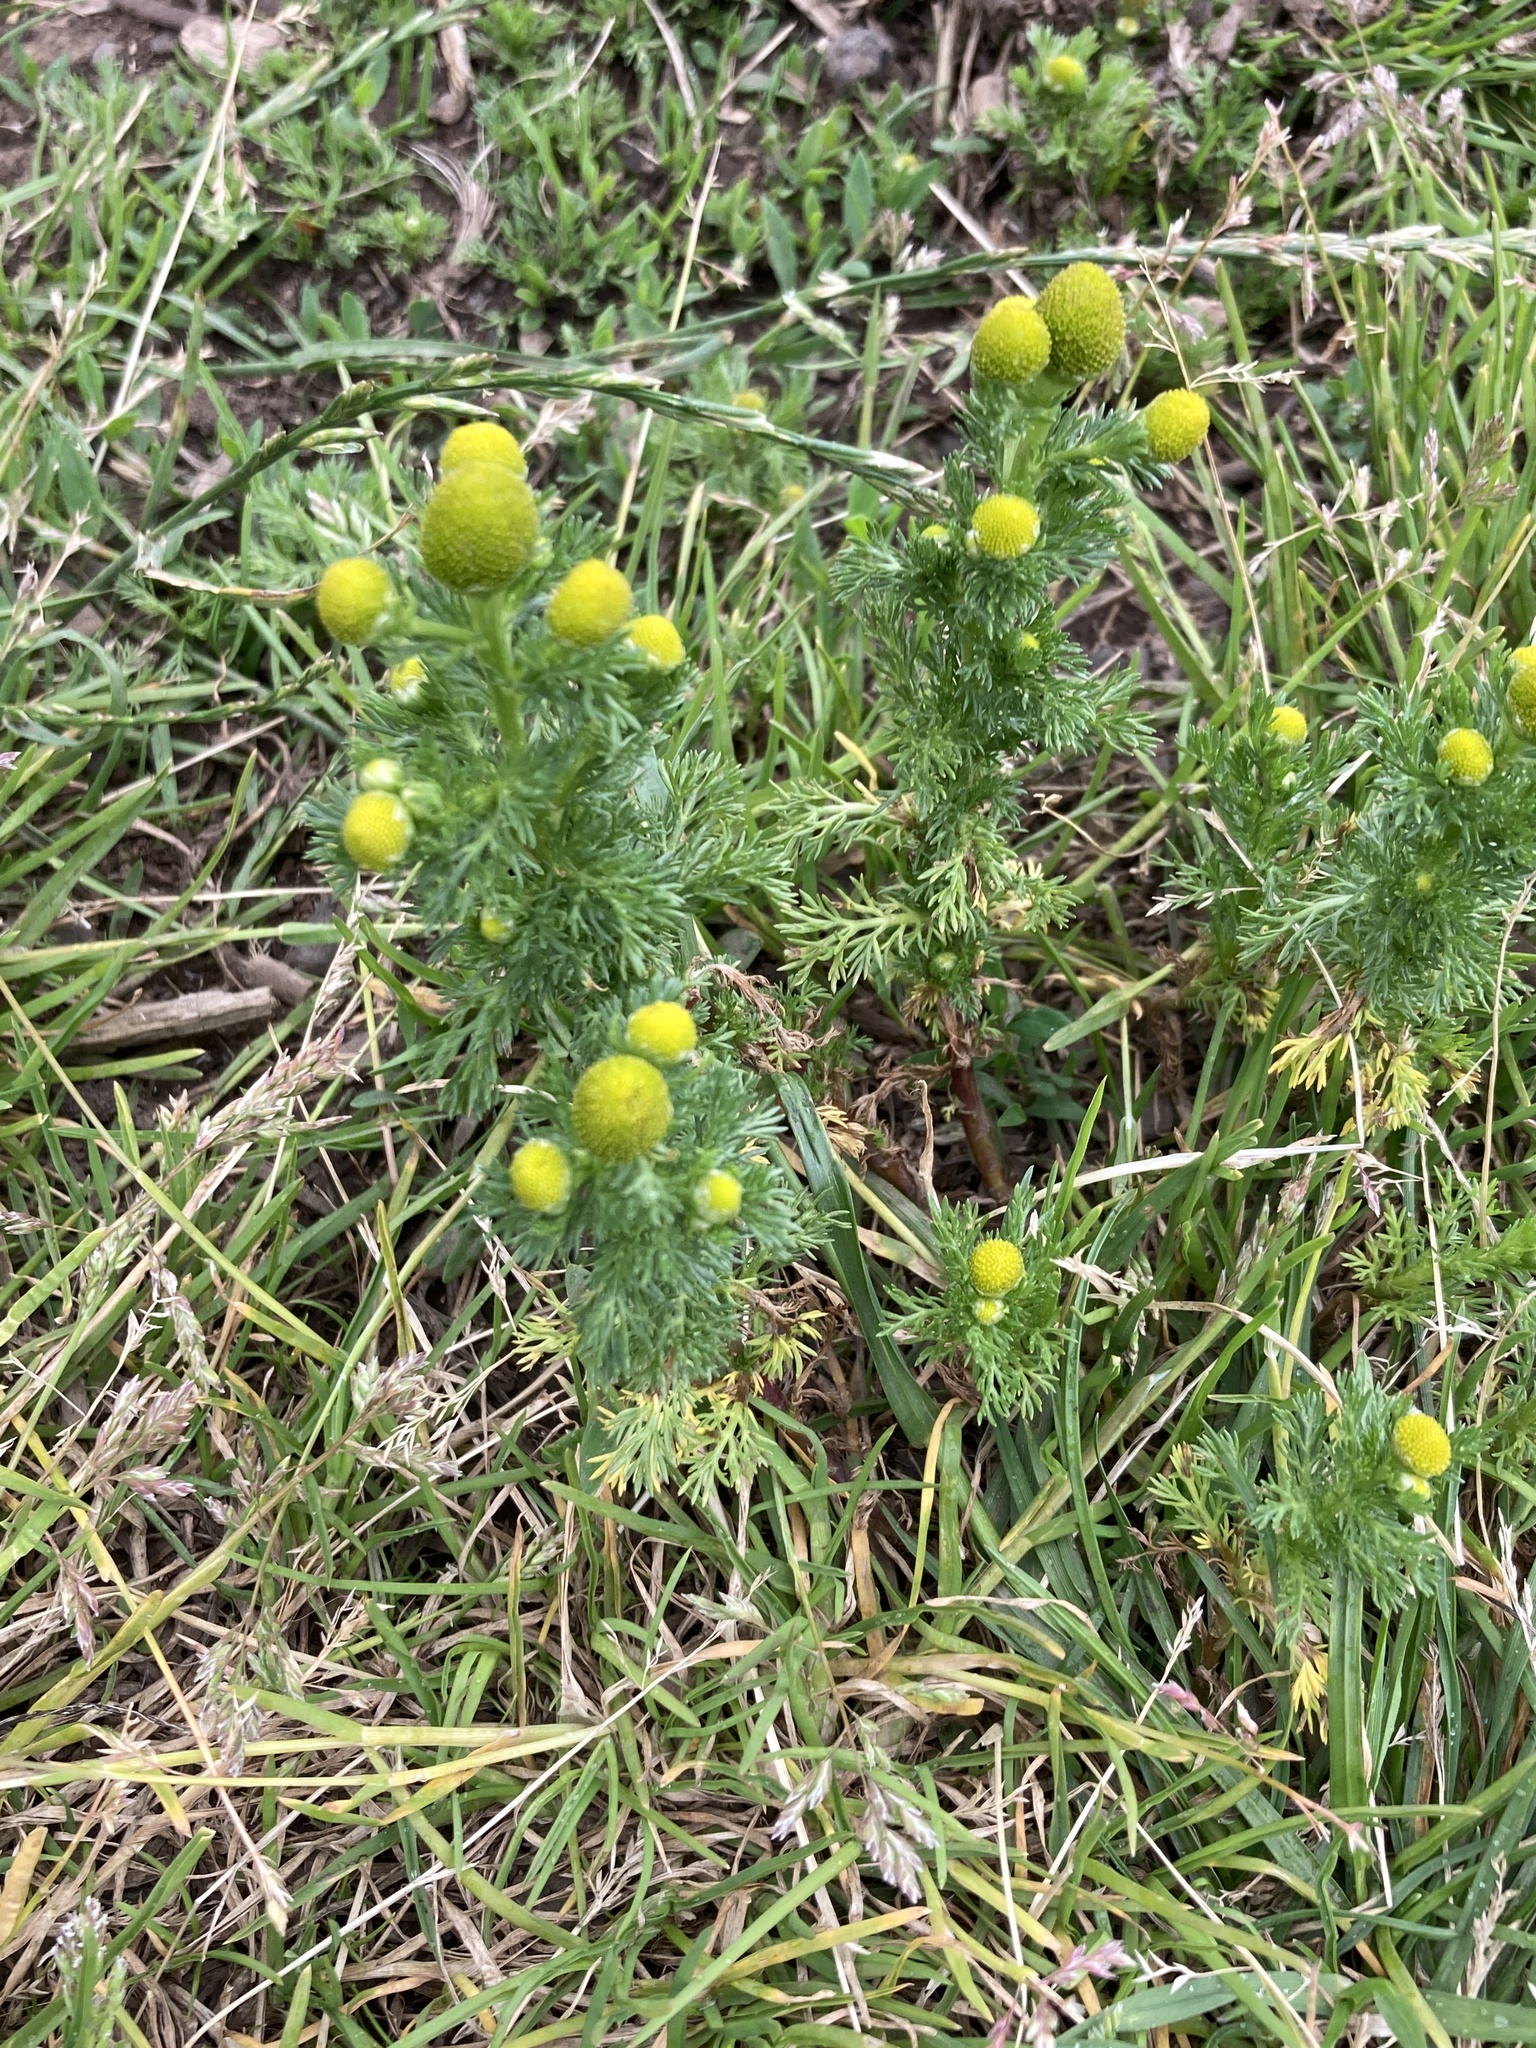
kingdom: Plantae
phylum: Tracheophyta
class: Magnoliopsida
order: Asterales
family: Asteraceae
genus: Matricaria
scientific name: Matricaria discoidea
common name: Disc mayweed
